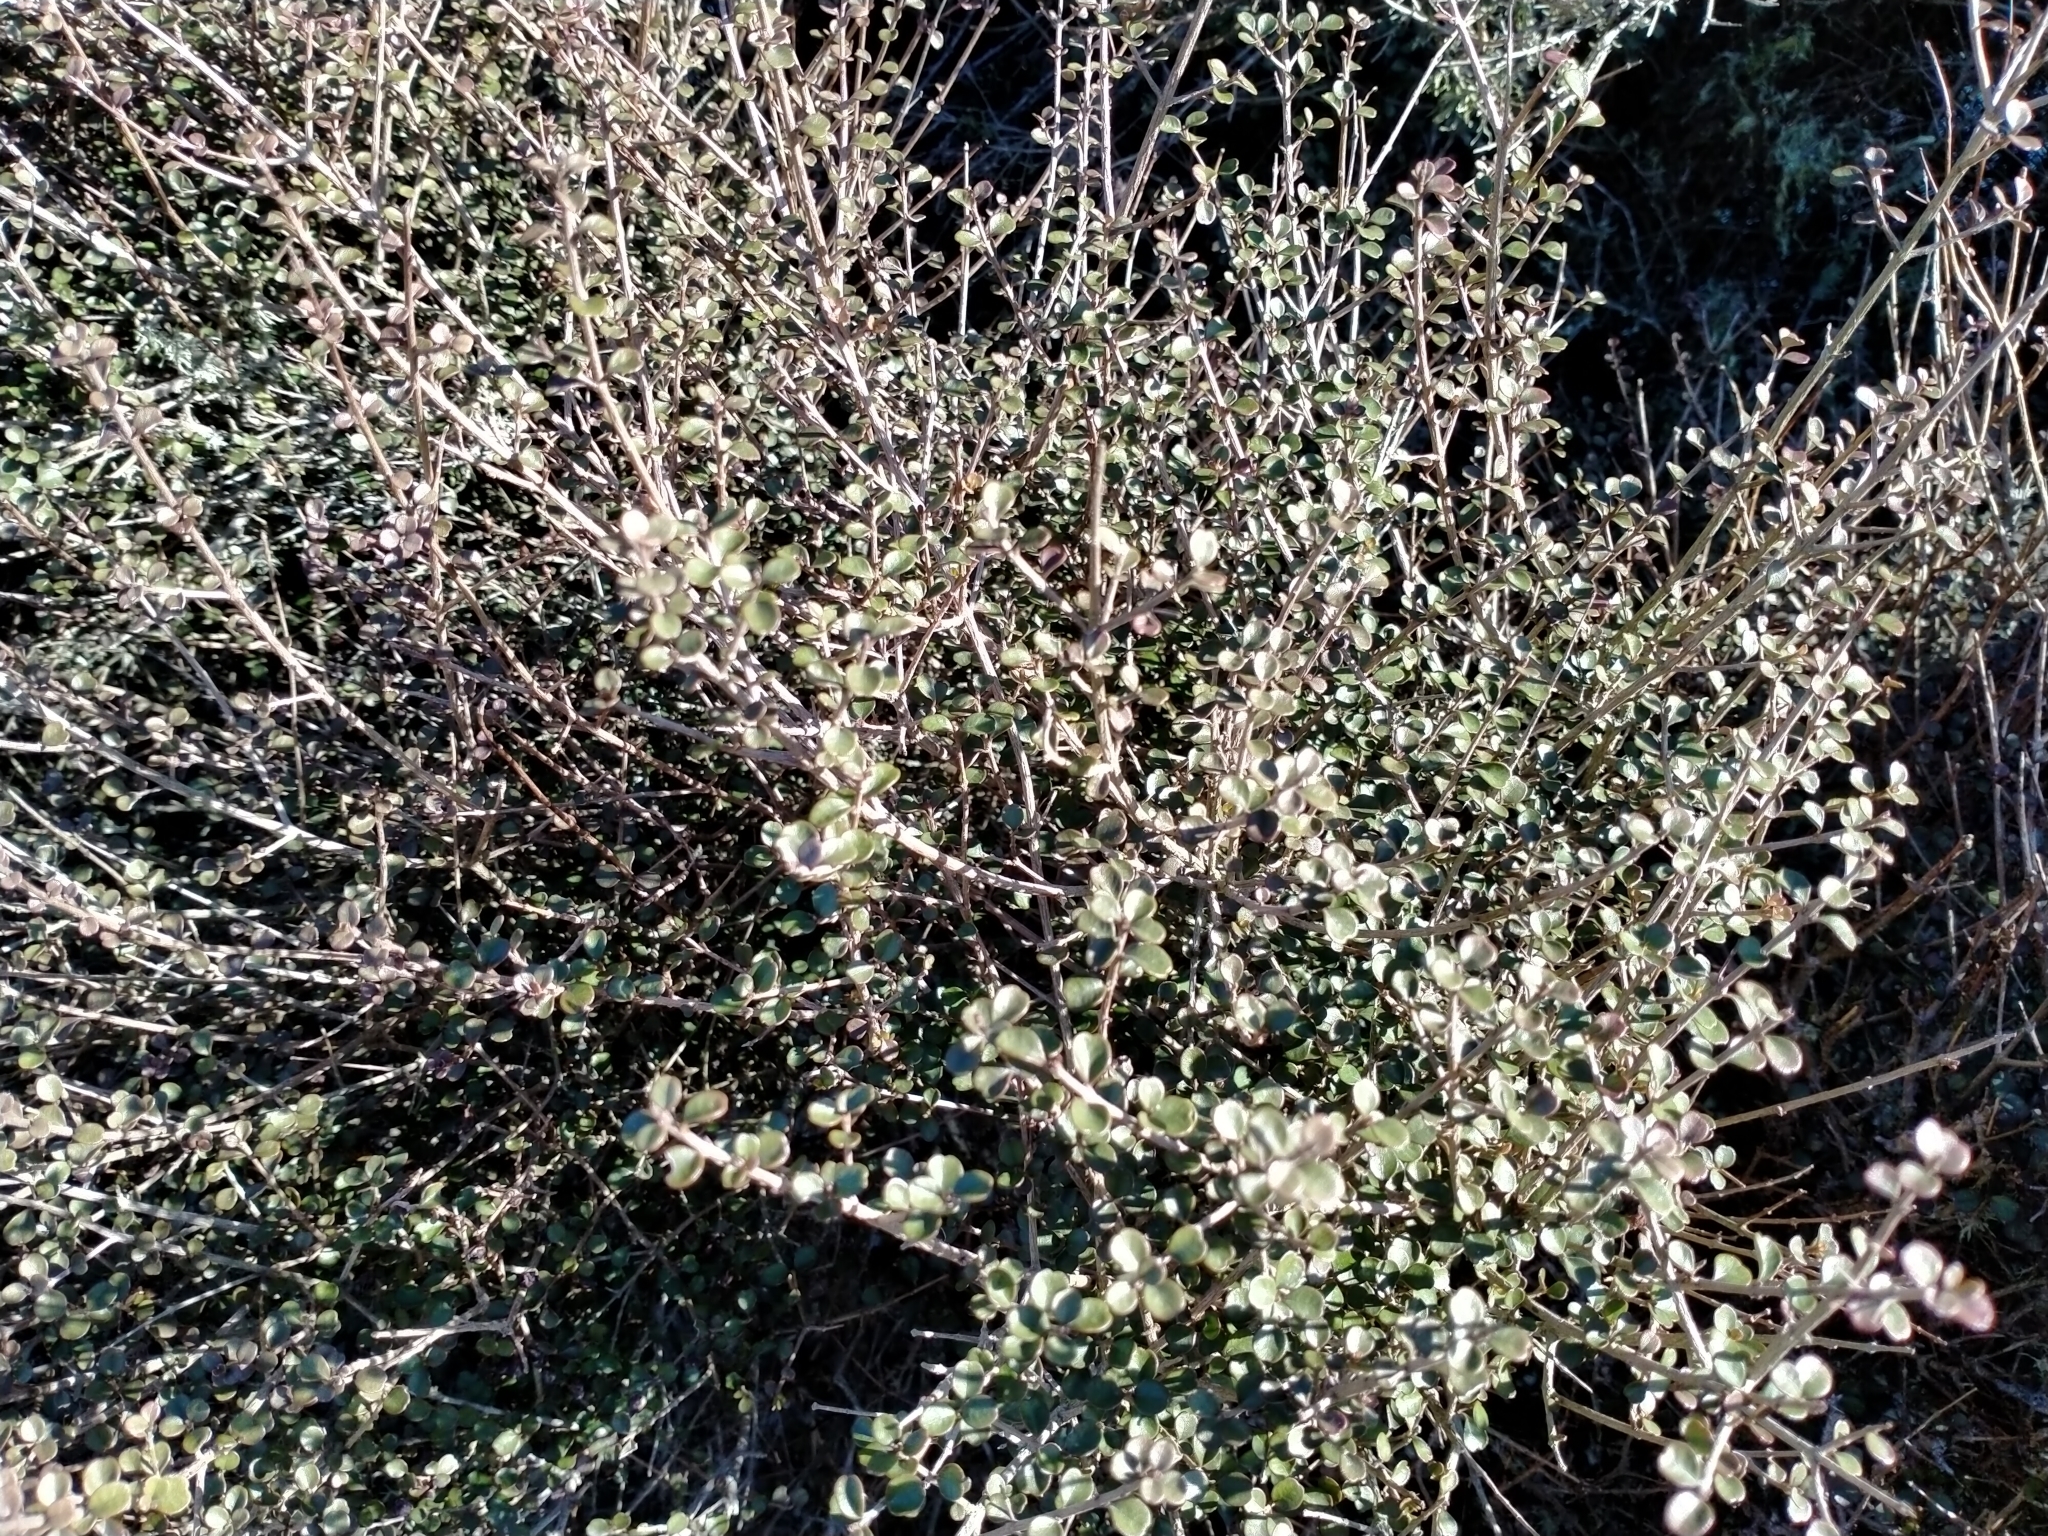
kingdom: Plantae
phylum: Tracheophyta
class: Magnoliopsida
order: Myrtales
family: Myrtaceae
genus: Lophomyrtus
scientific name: Lophomyrtus obcordata
